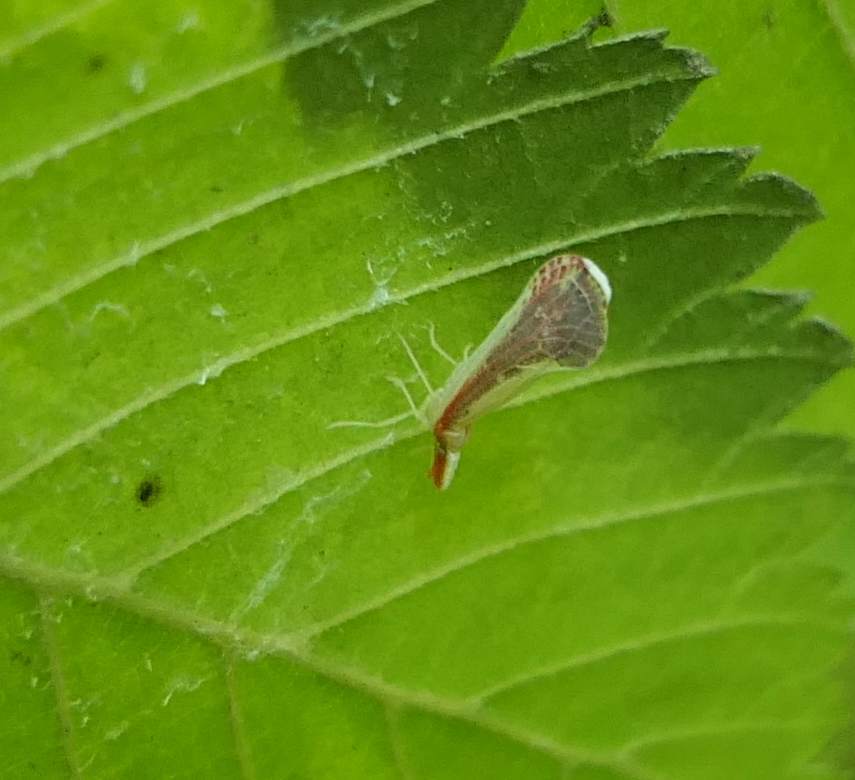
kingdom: Animalia
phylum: Arthropoda
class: Insecta
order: Hemiptera
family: Derbidae
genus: Shellenius
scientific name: Shellenius ballii
